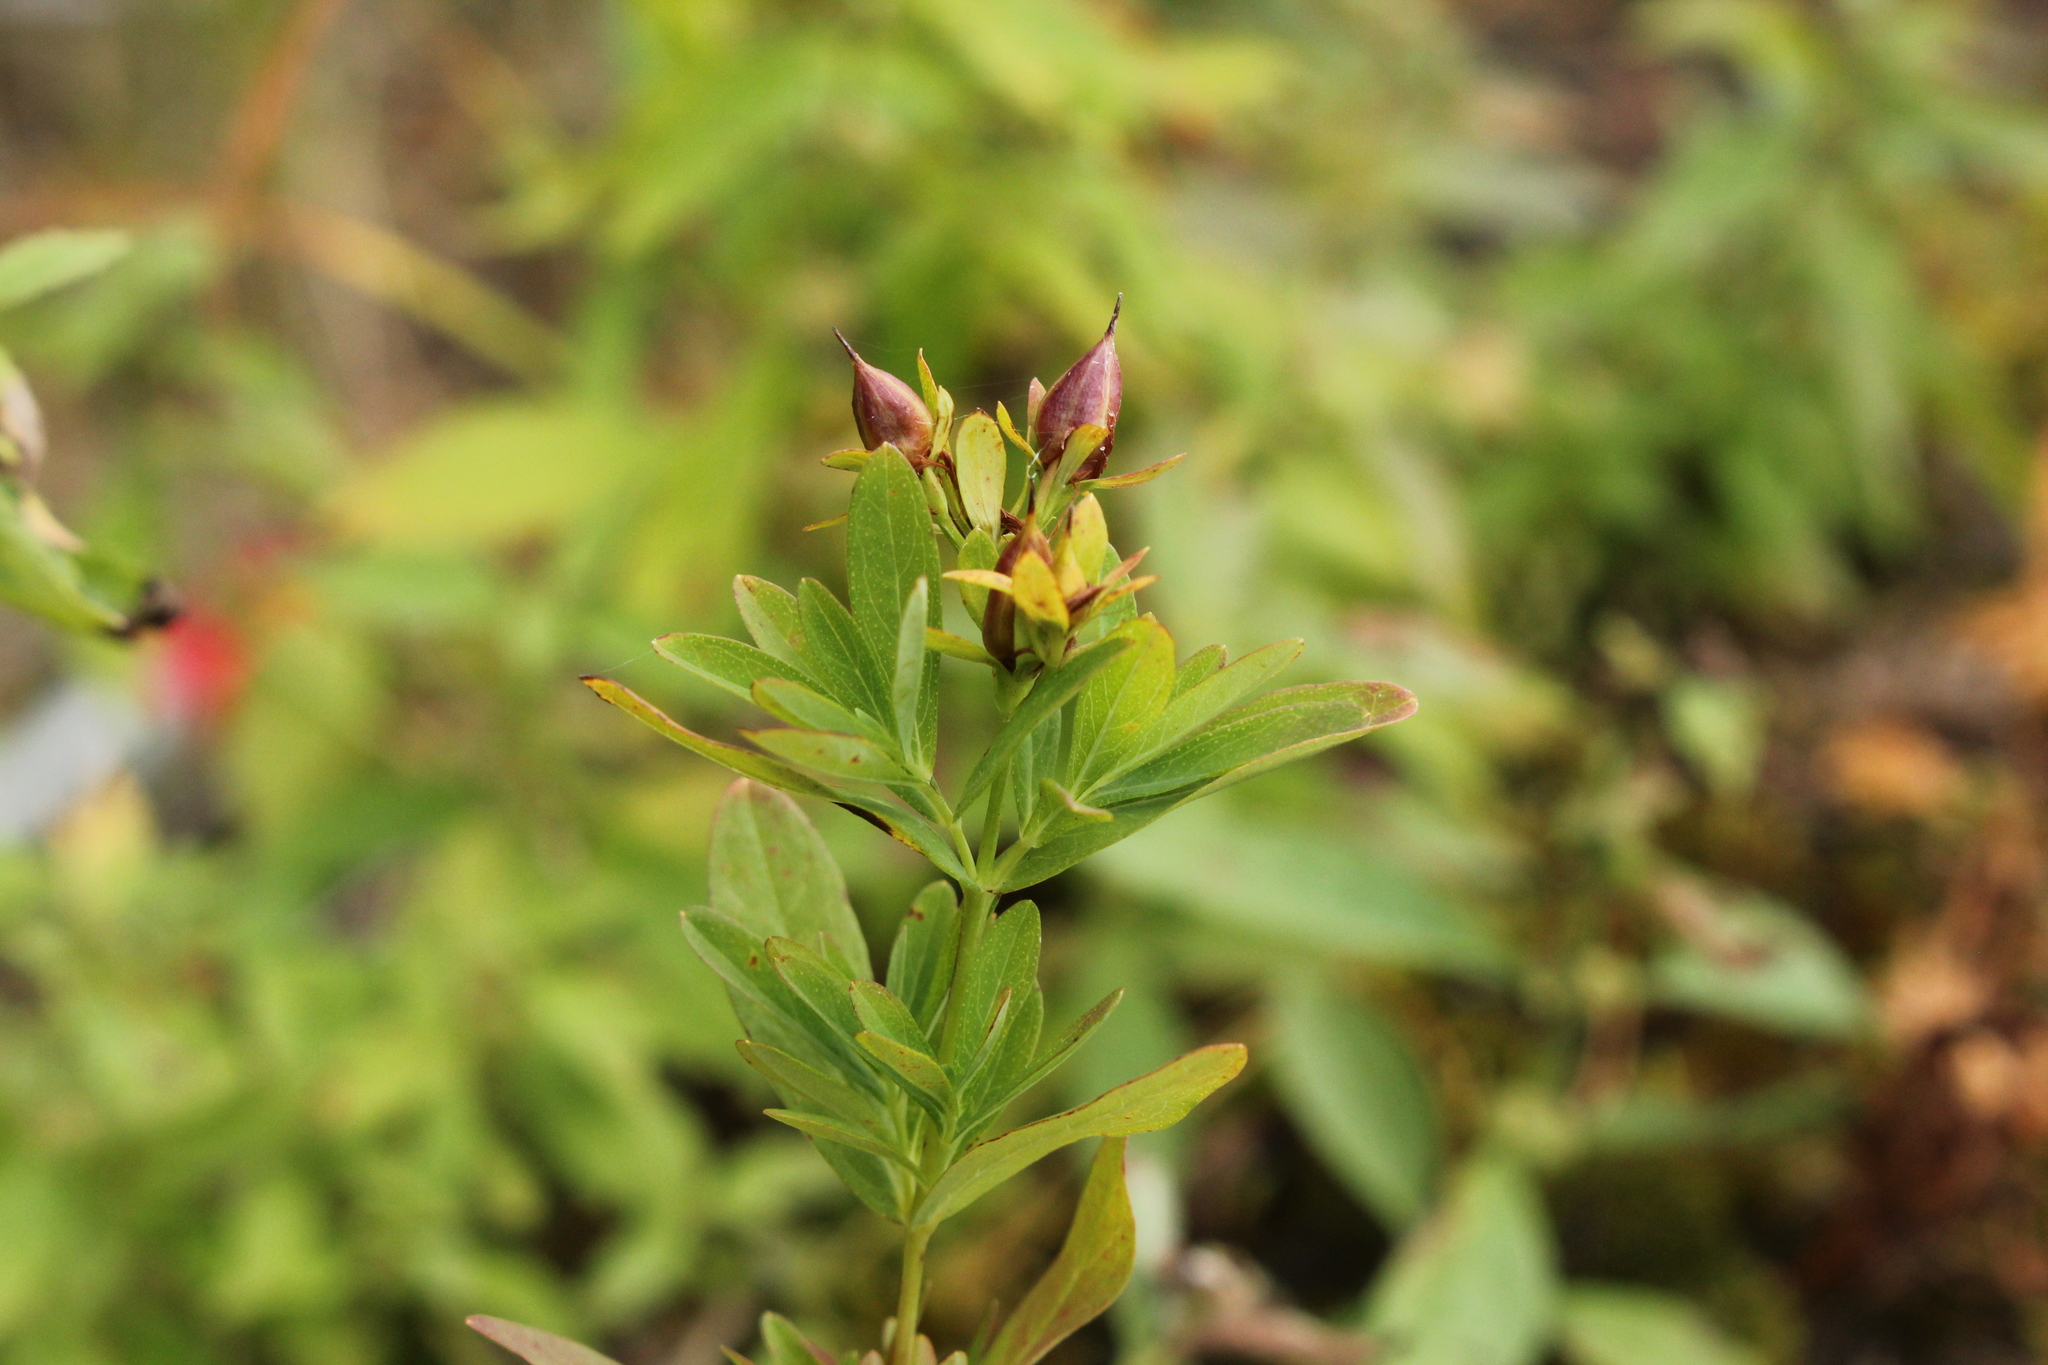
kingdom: Plantae
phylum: Tracheophyta
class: Magnoliopsida
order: Malpighiales
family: Hypericaceae
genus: Hypericum
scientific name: Hypericum ellipticum
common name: Elliptic st. john's-wort
